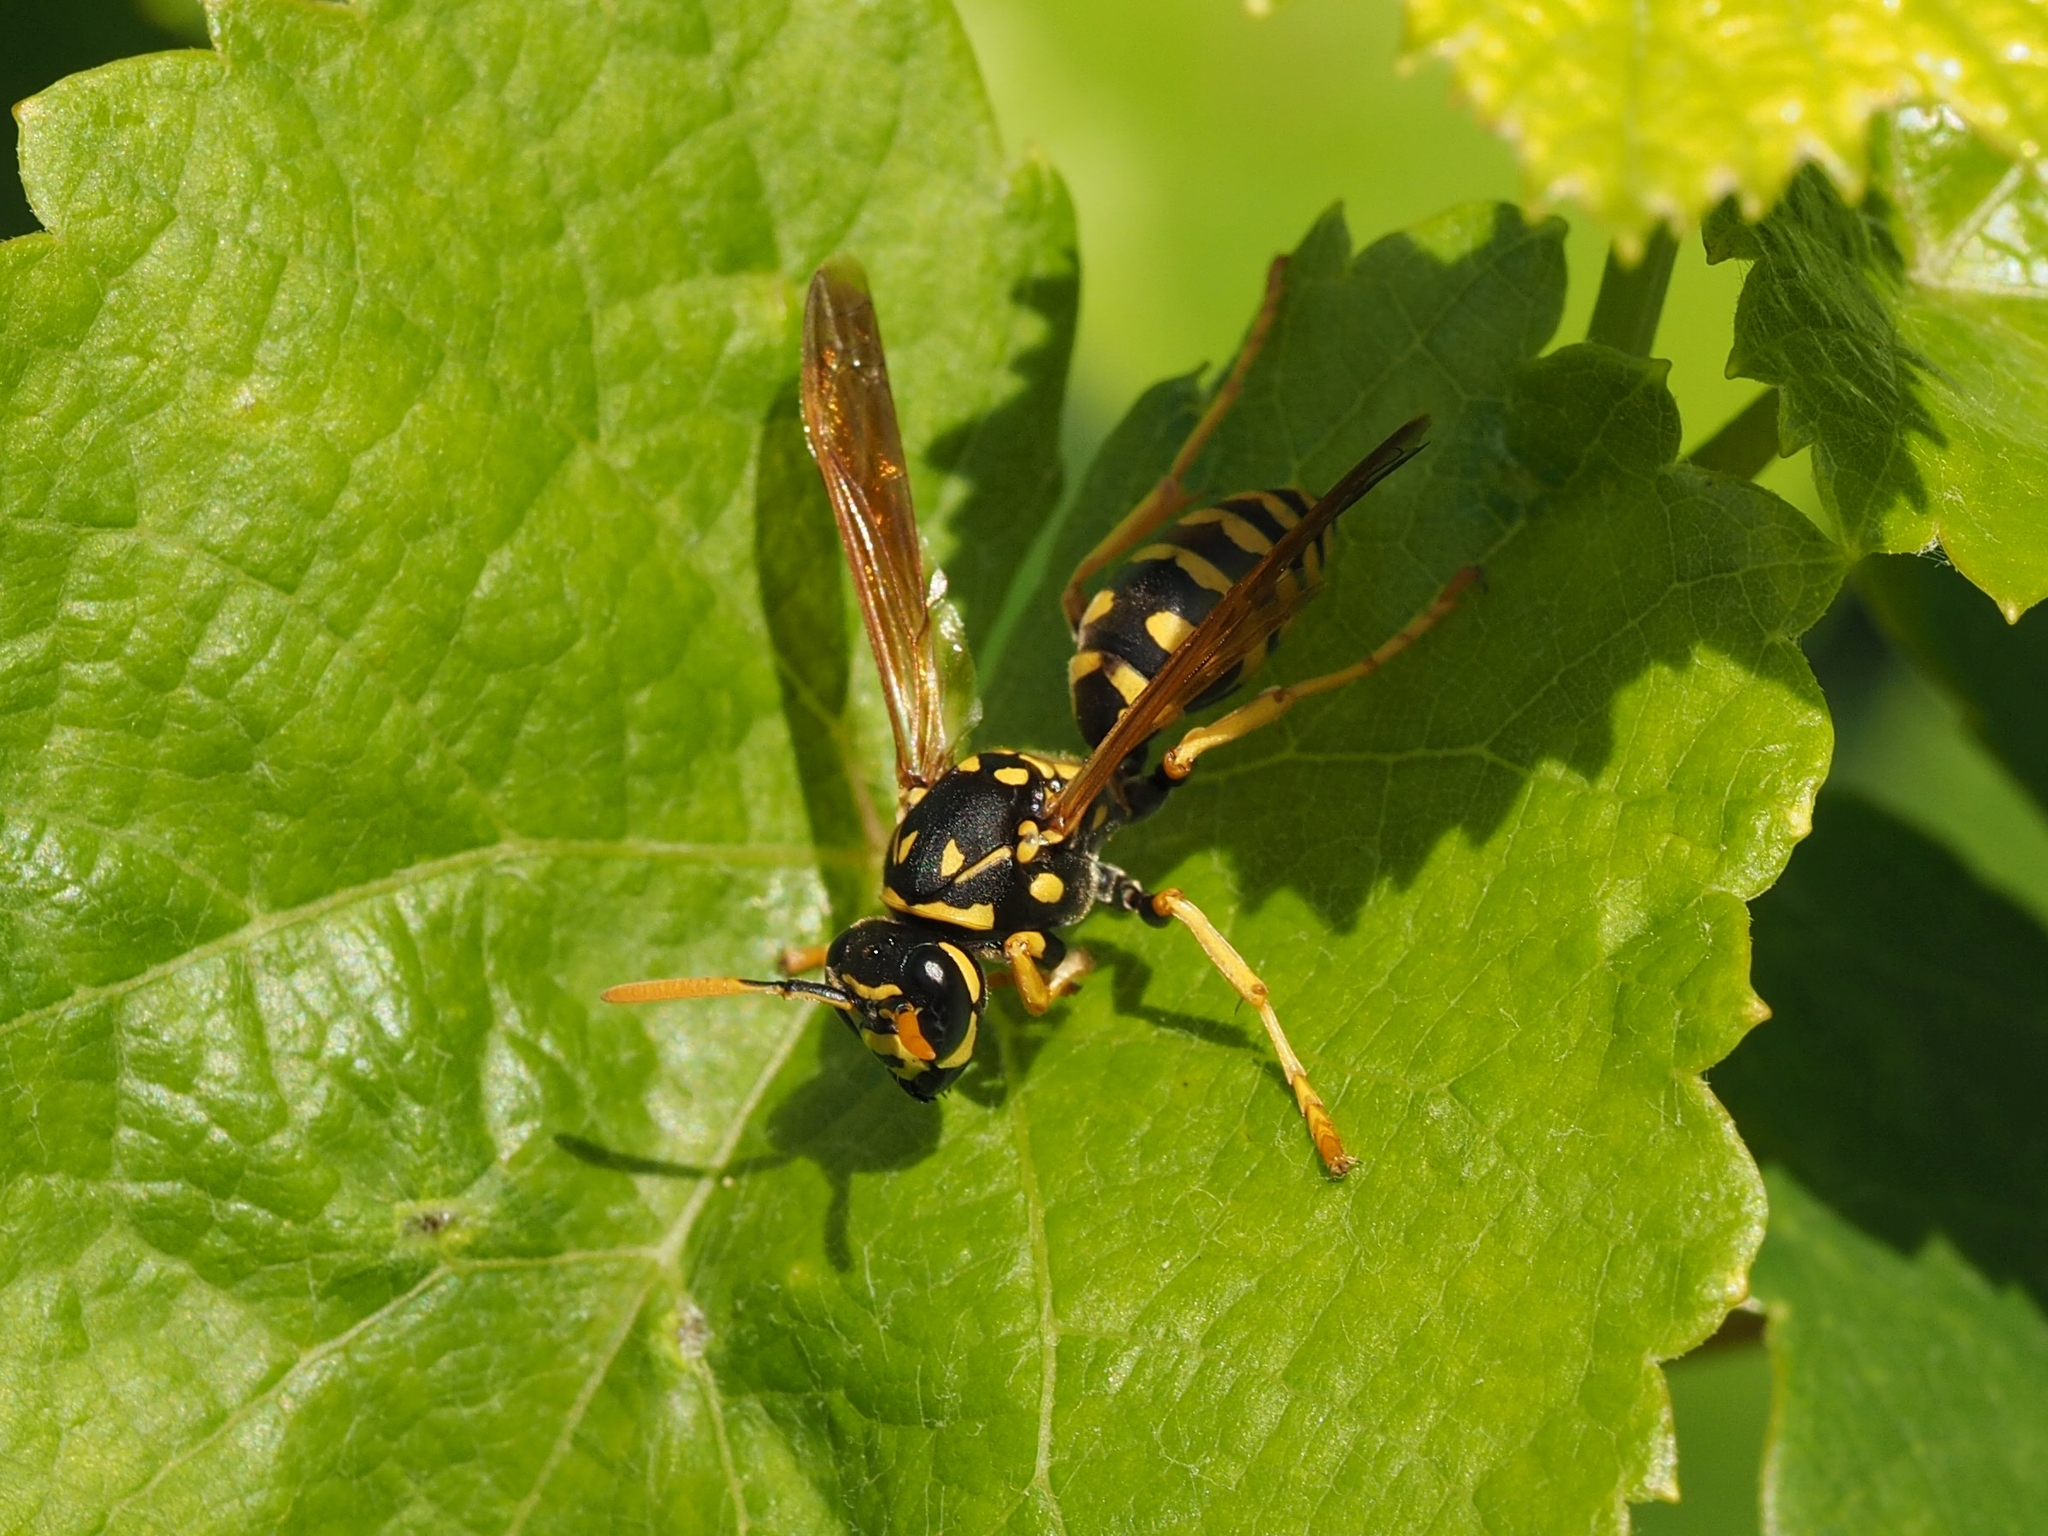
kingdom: Animalia
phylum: Arthropoda
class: Insecta
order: Hymenoptera
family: Eumenidae
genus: Polistes
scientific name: Polistes dominula
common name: Paper wasp
